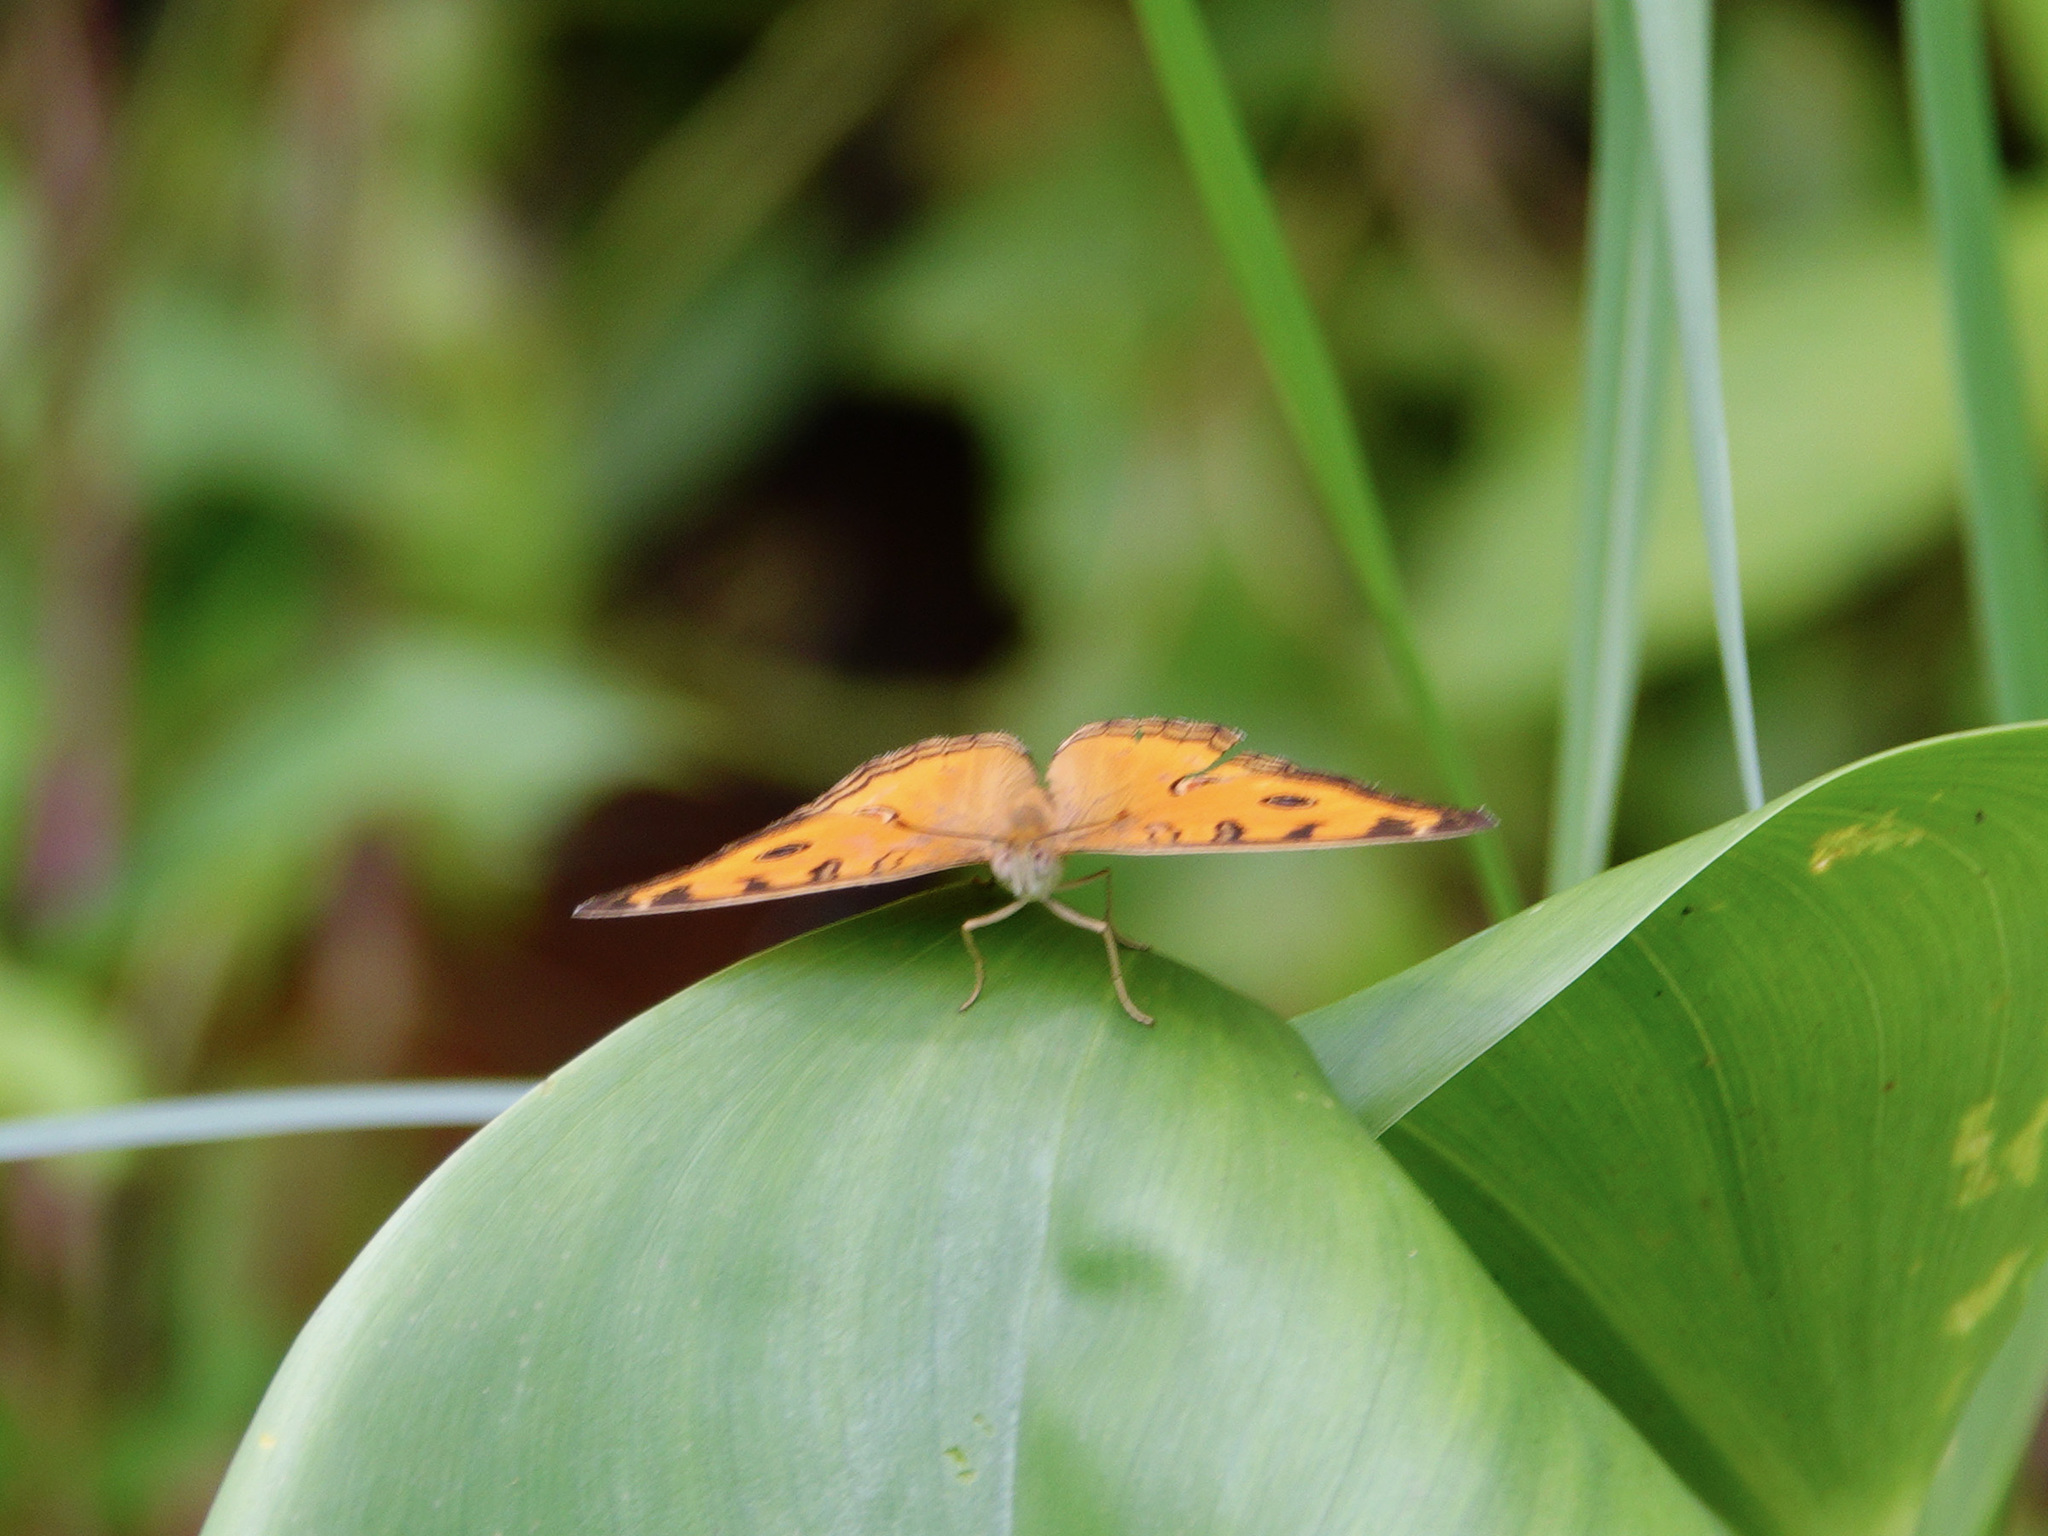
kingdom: Animalia
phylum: Arthropoda
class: Insecta
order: Lepidoptera
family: Nymphalidae
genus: Junonia
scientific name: Junonia almana
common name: Peacock pansy
